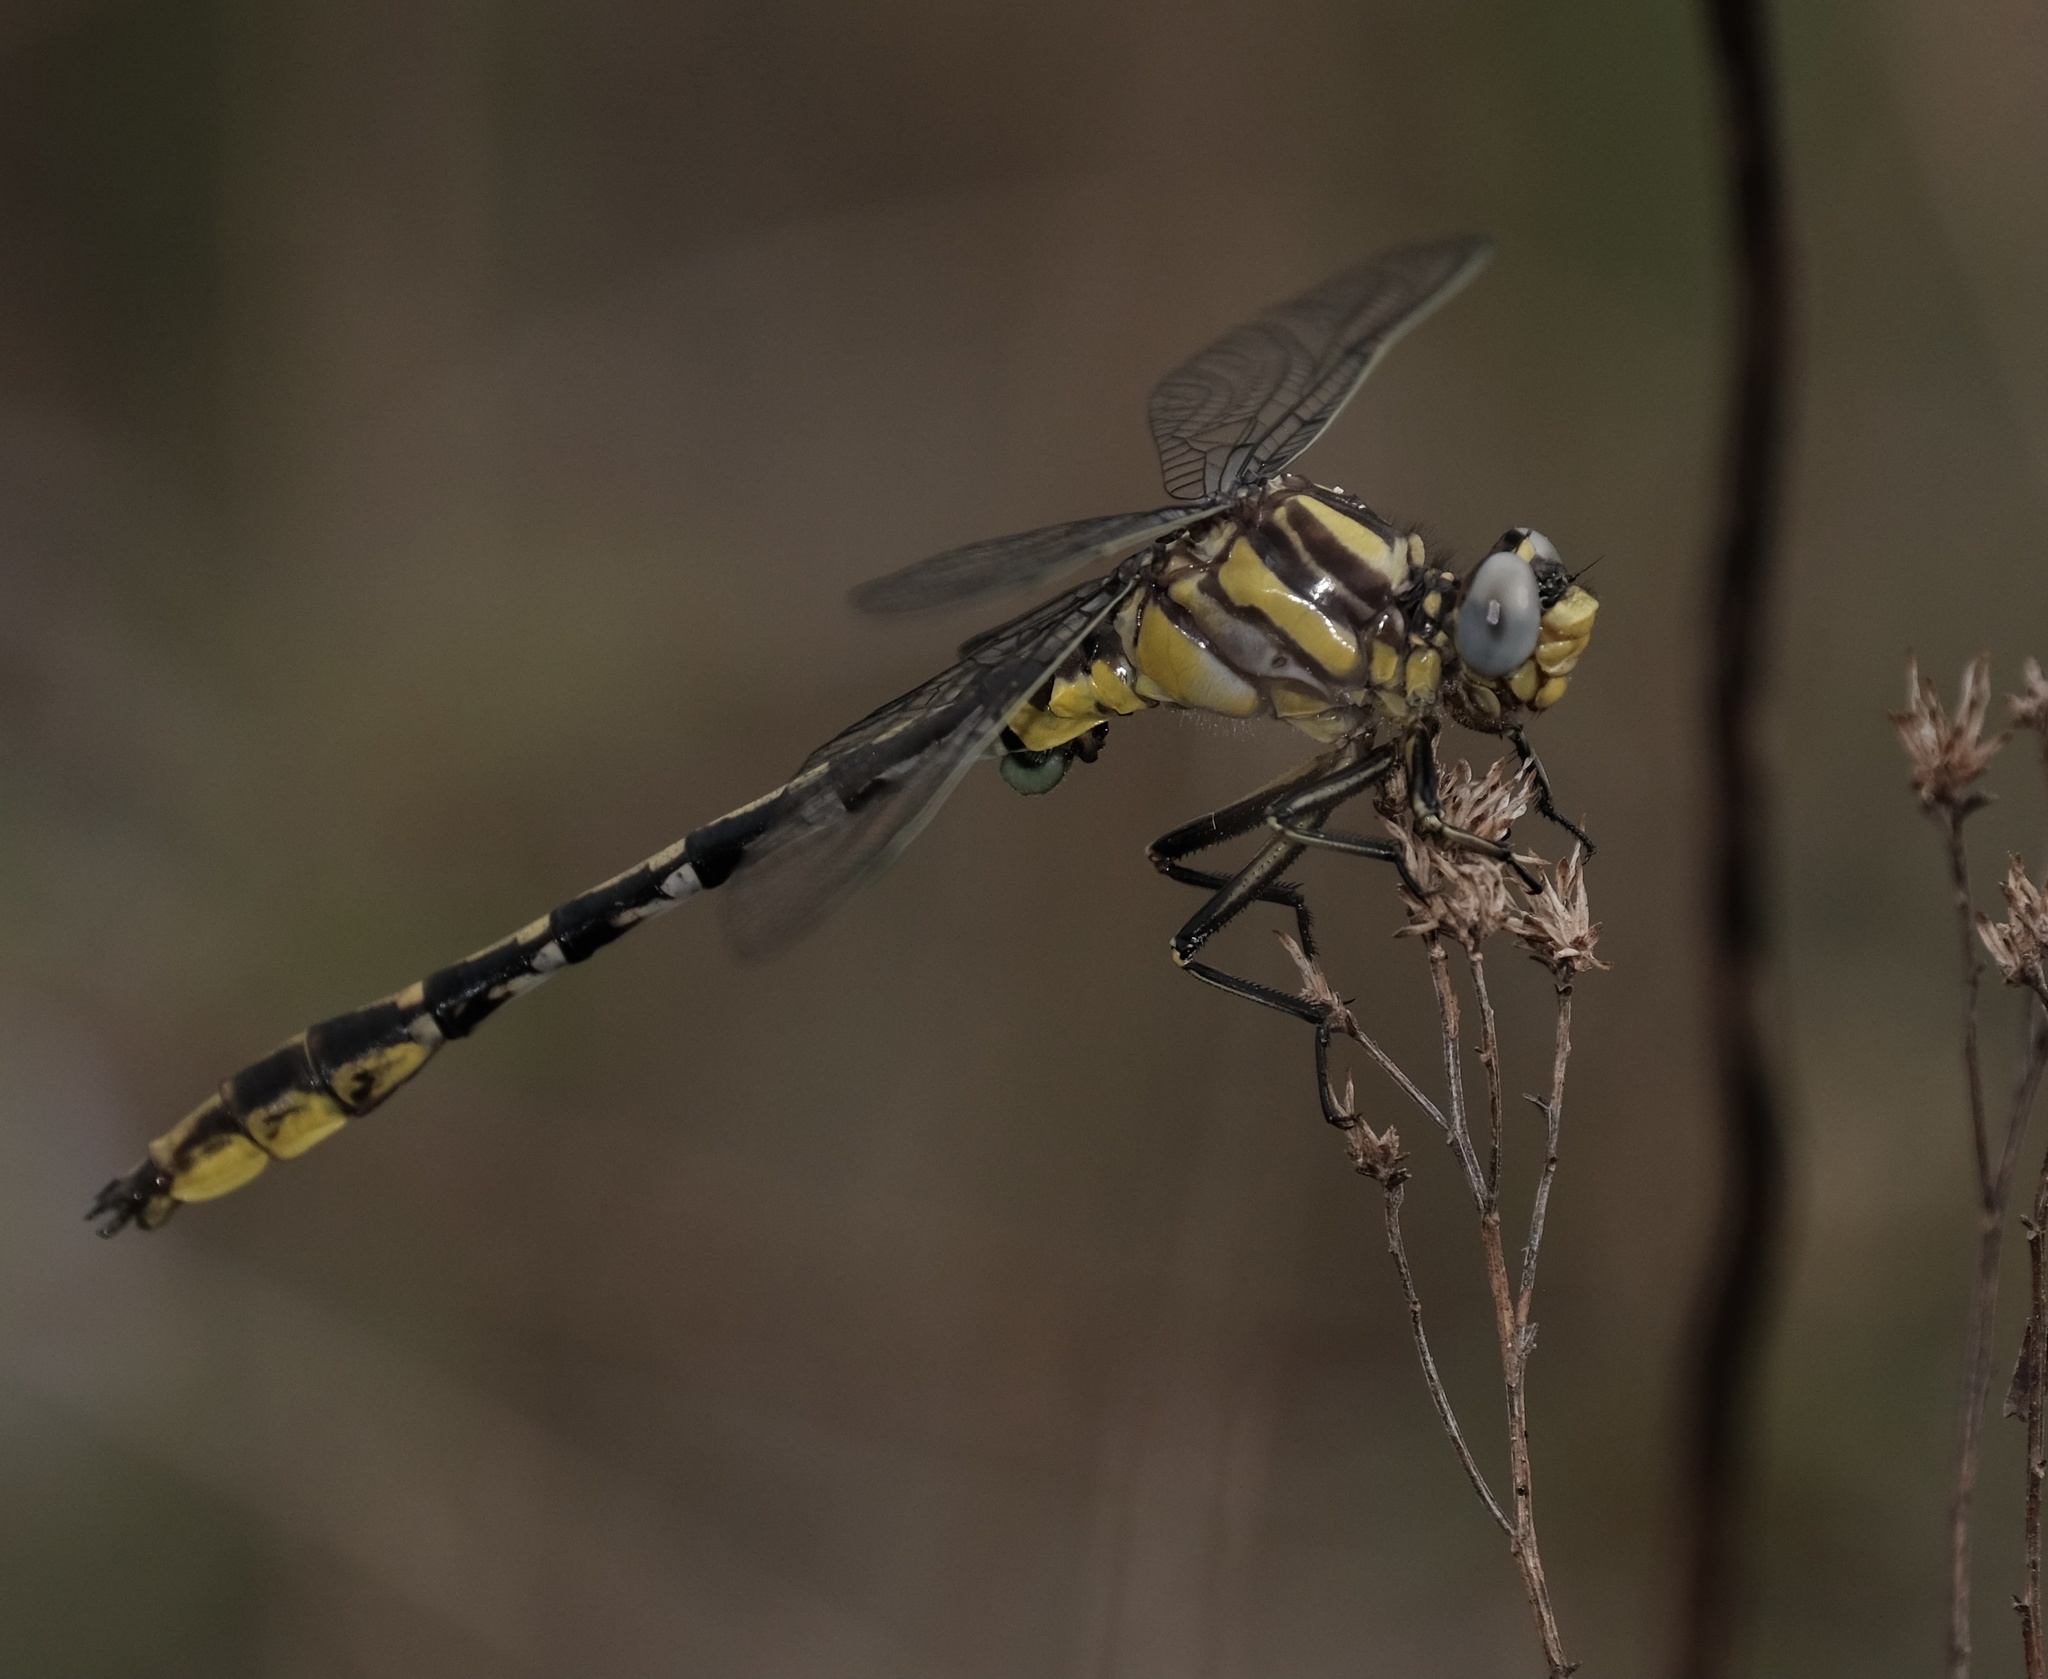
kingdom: Animalia
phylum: Arthropoda
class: Insecta
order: Odonata
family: Gomphidae
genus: Phanogomphus
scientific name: Phanogomphus militaris
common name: Sulphur-tipped clubtail
